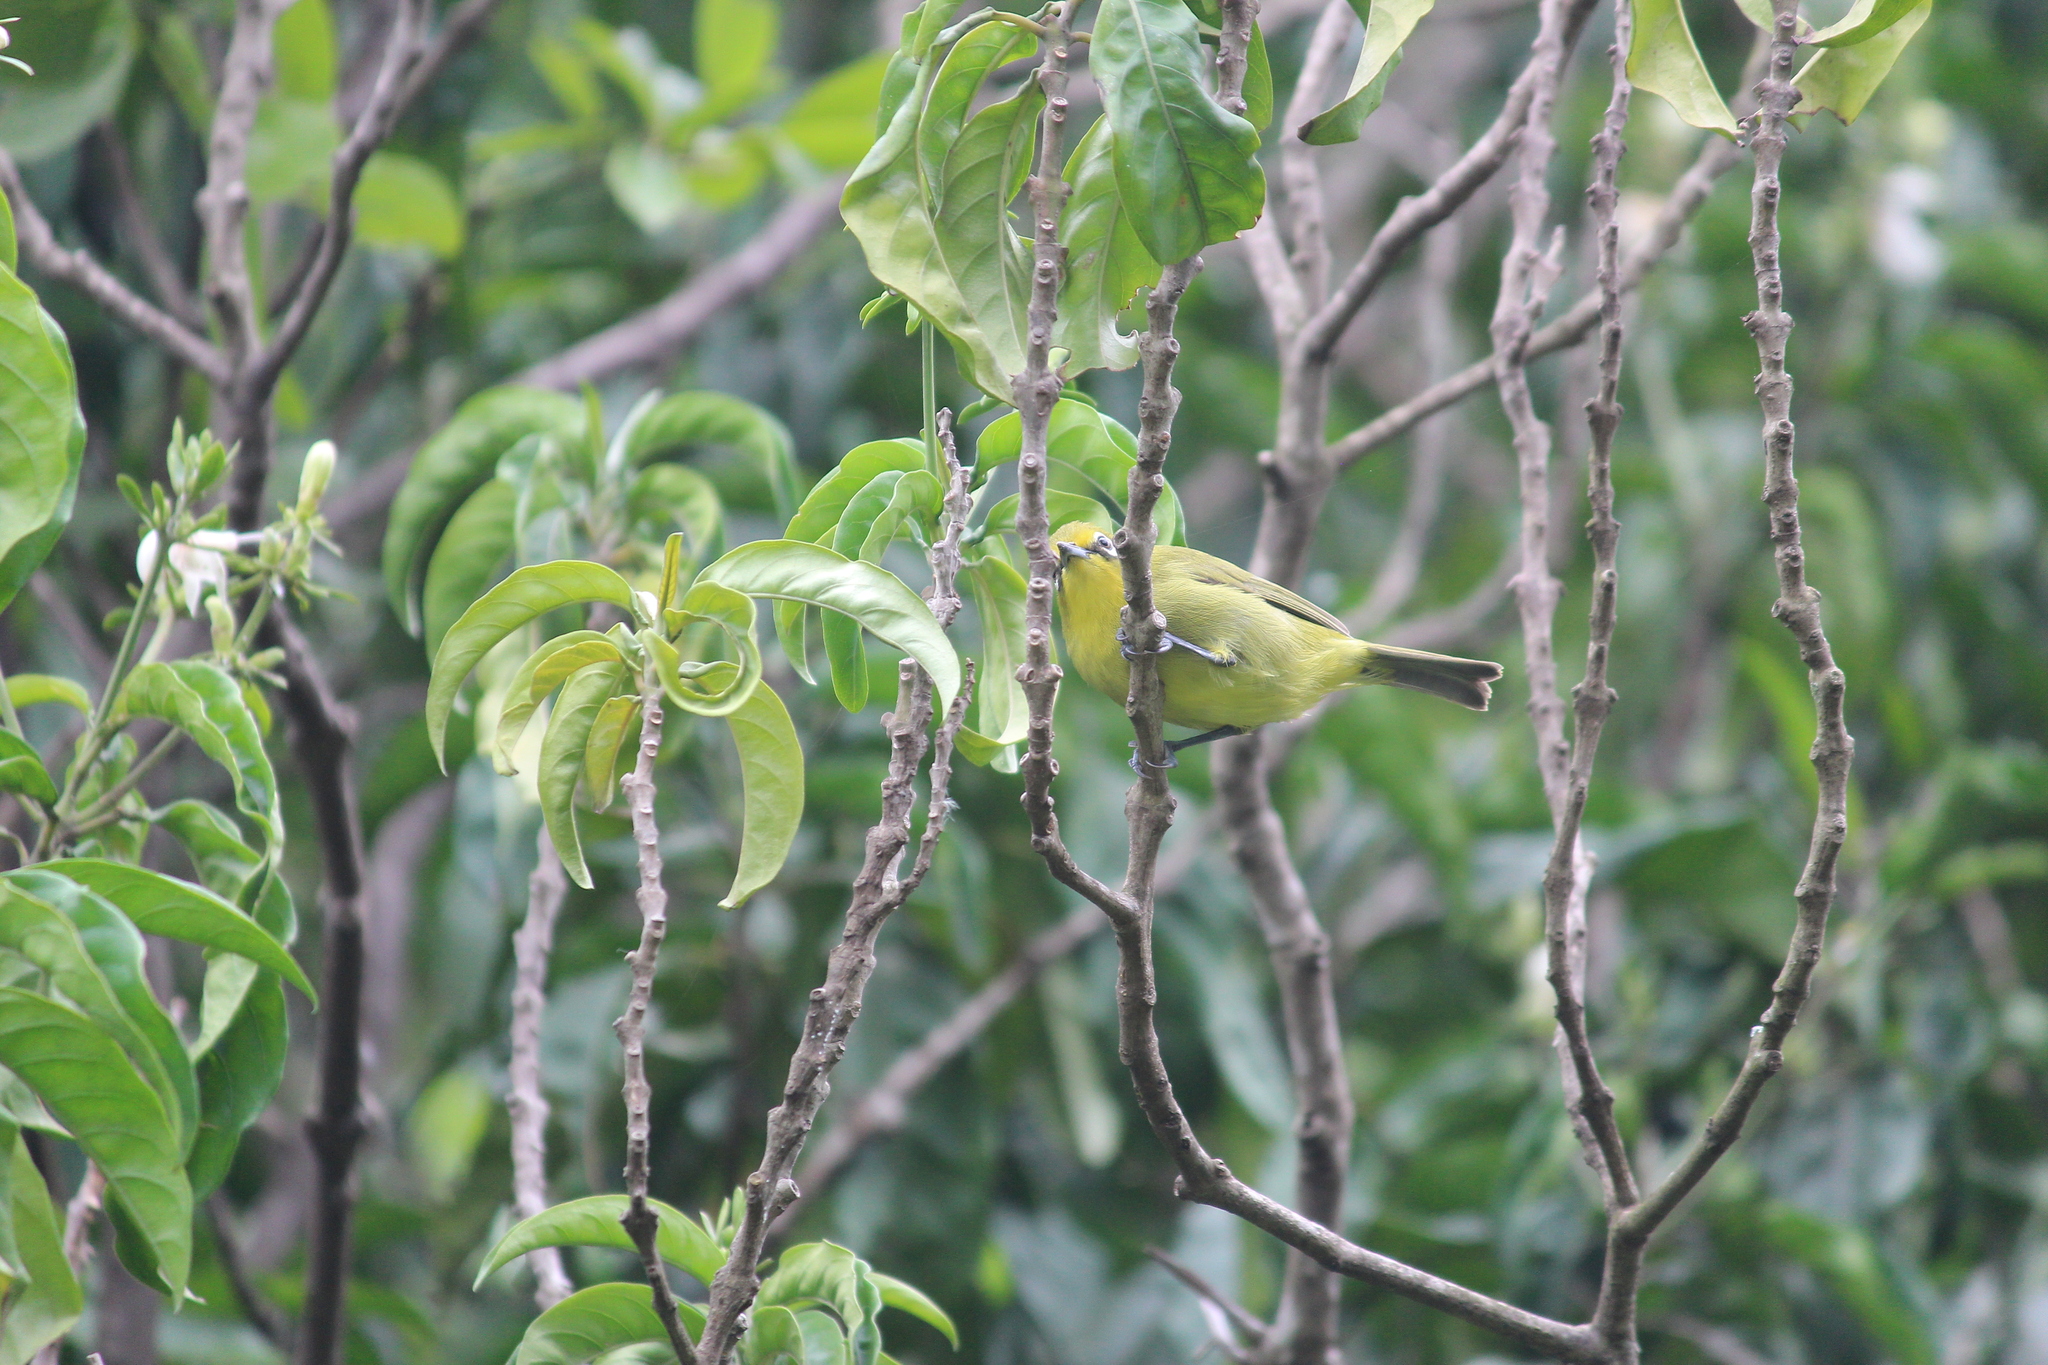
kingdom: Animalia
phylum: Chordata
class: Aves
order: Passeriformes
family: Zosteropidae
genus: Zosterops
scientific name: Zosterops virens
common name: Cape white-eye
